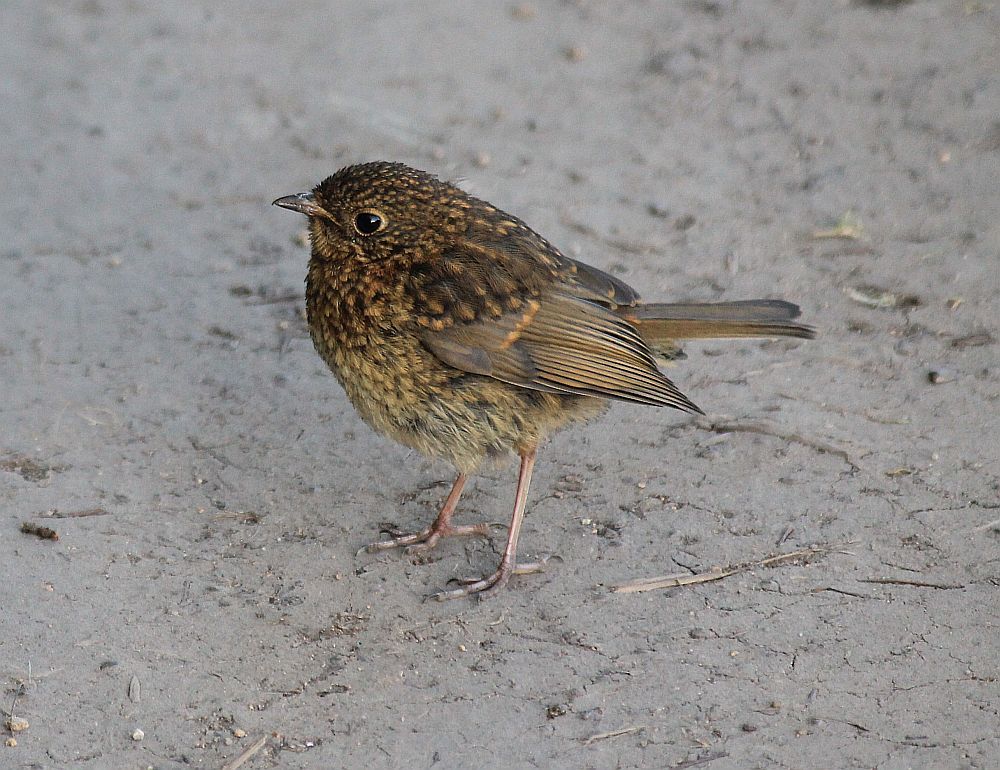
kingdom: Animalia
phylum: Chordata
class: Aves
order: Passeriformes
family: Muscicapidae
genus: Erithacus
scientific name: Erithacus rubecula
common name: European robin
